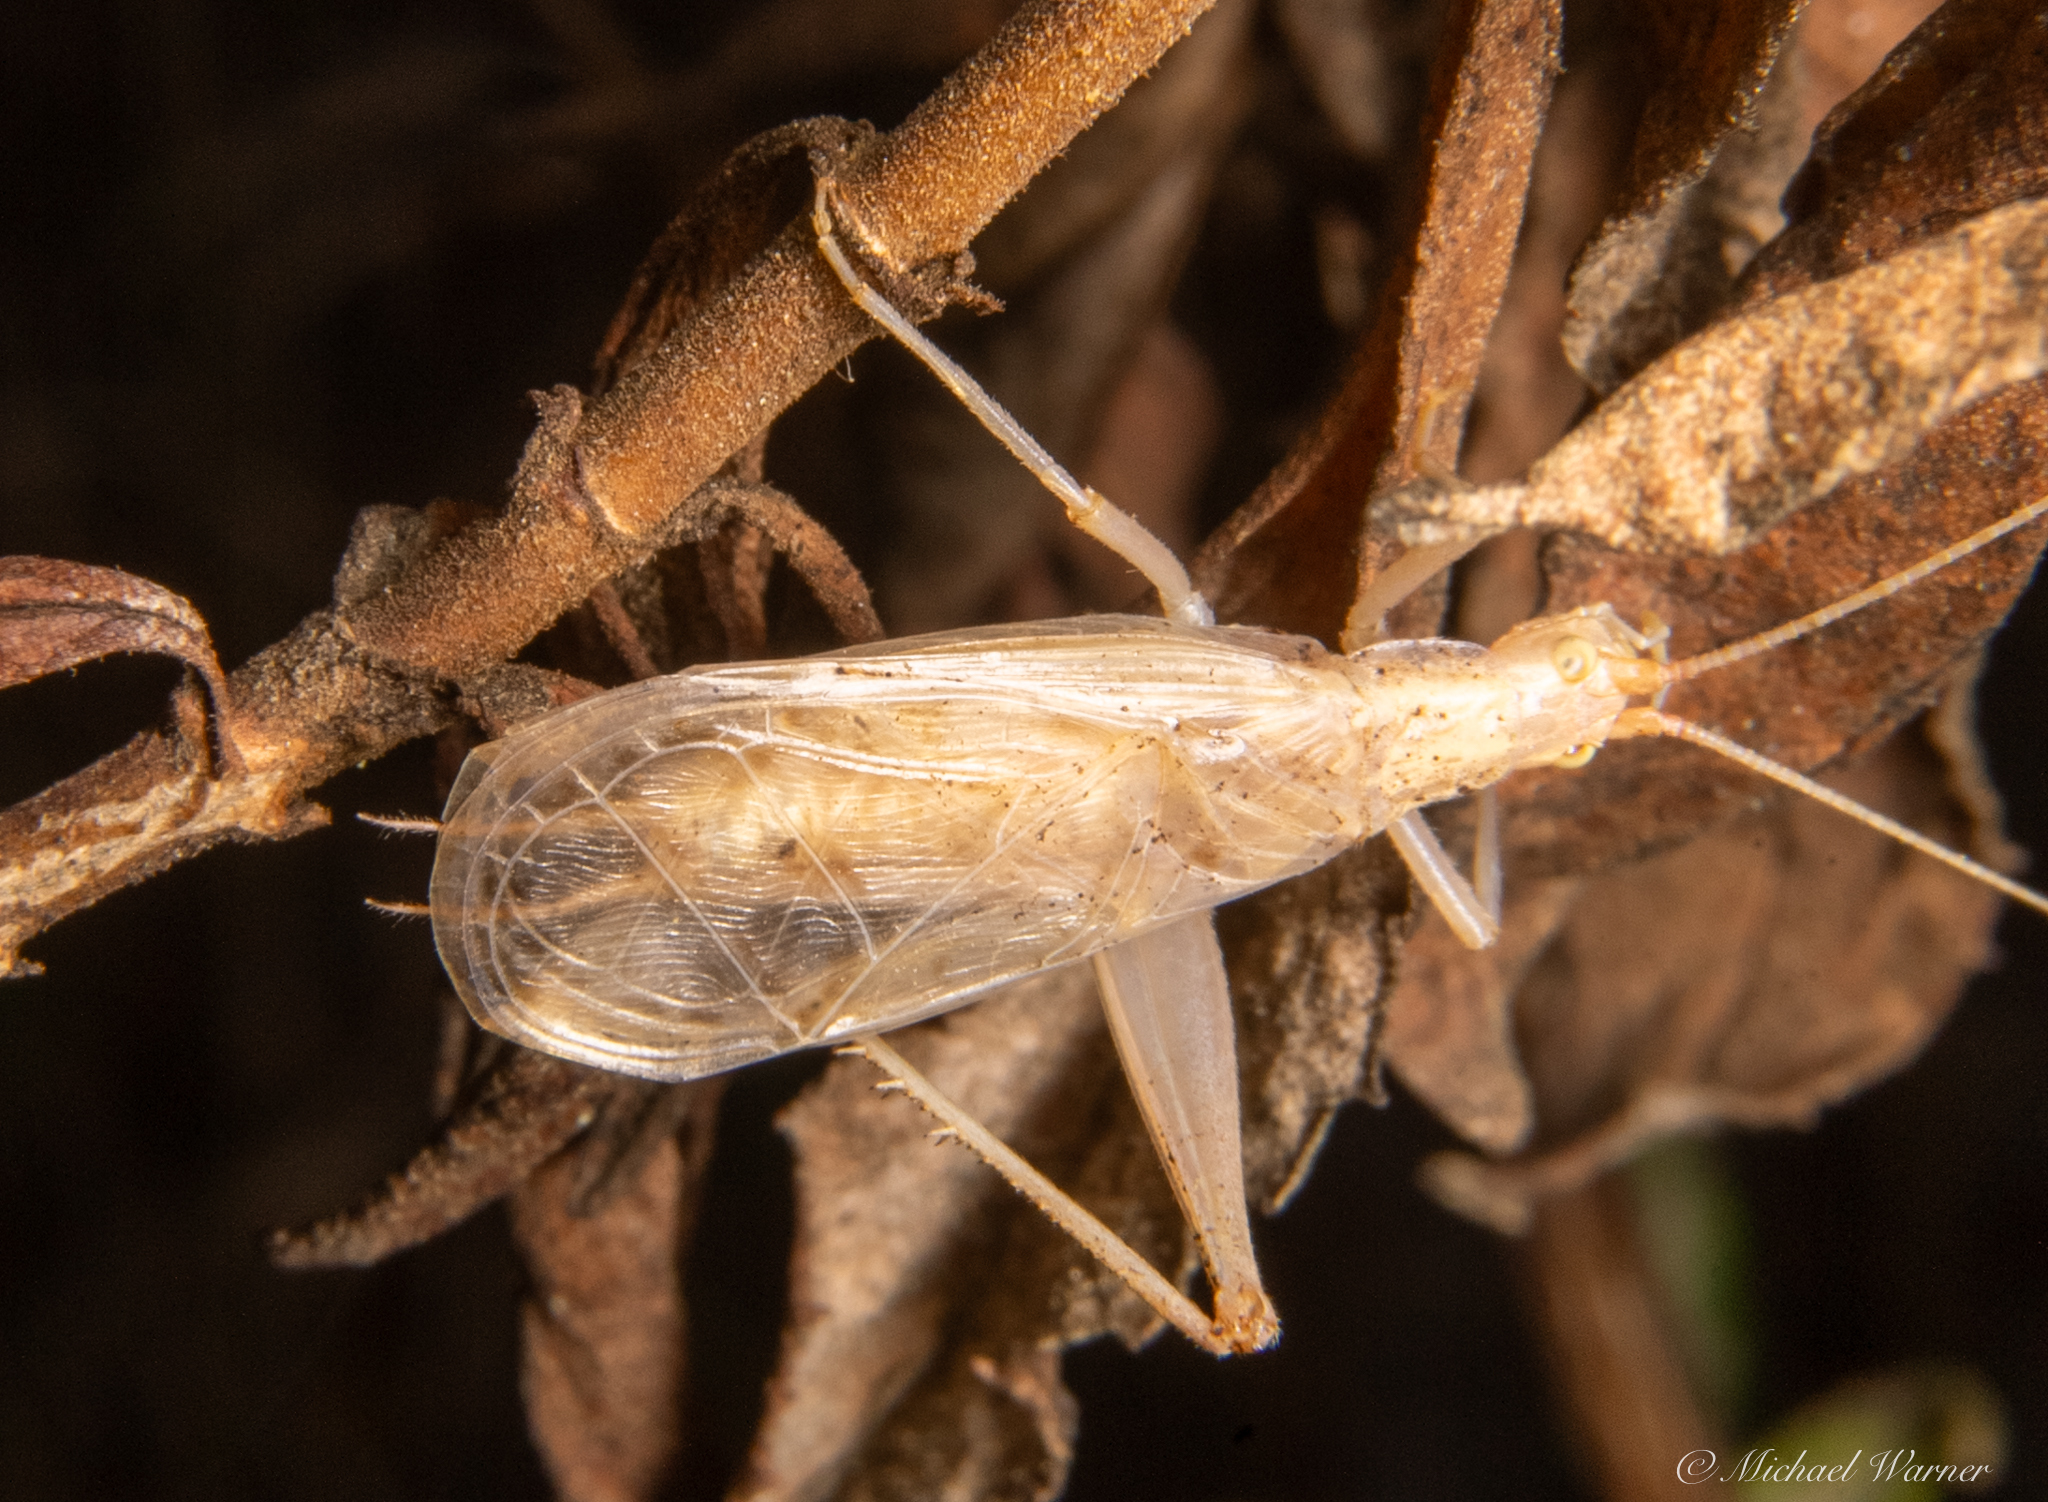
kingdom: Animalia
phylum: Arthropoda
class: Insecta
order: Orthoptera
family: Gryllidae
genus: Oecanthus
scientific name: Oecanthus californicus
